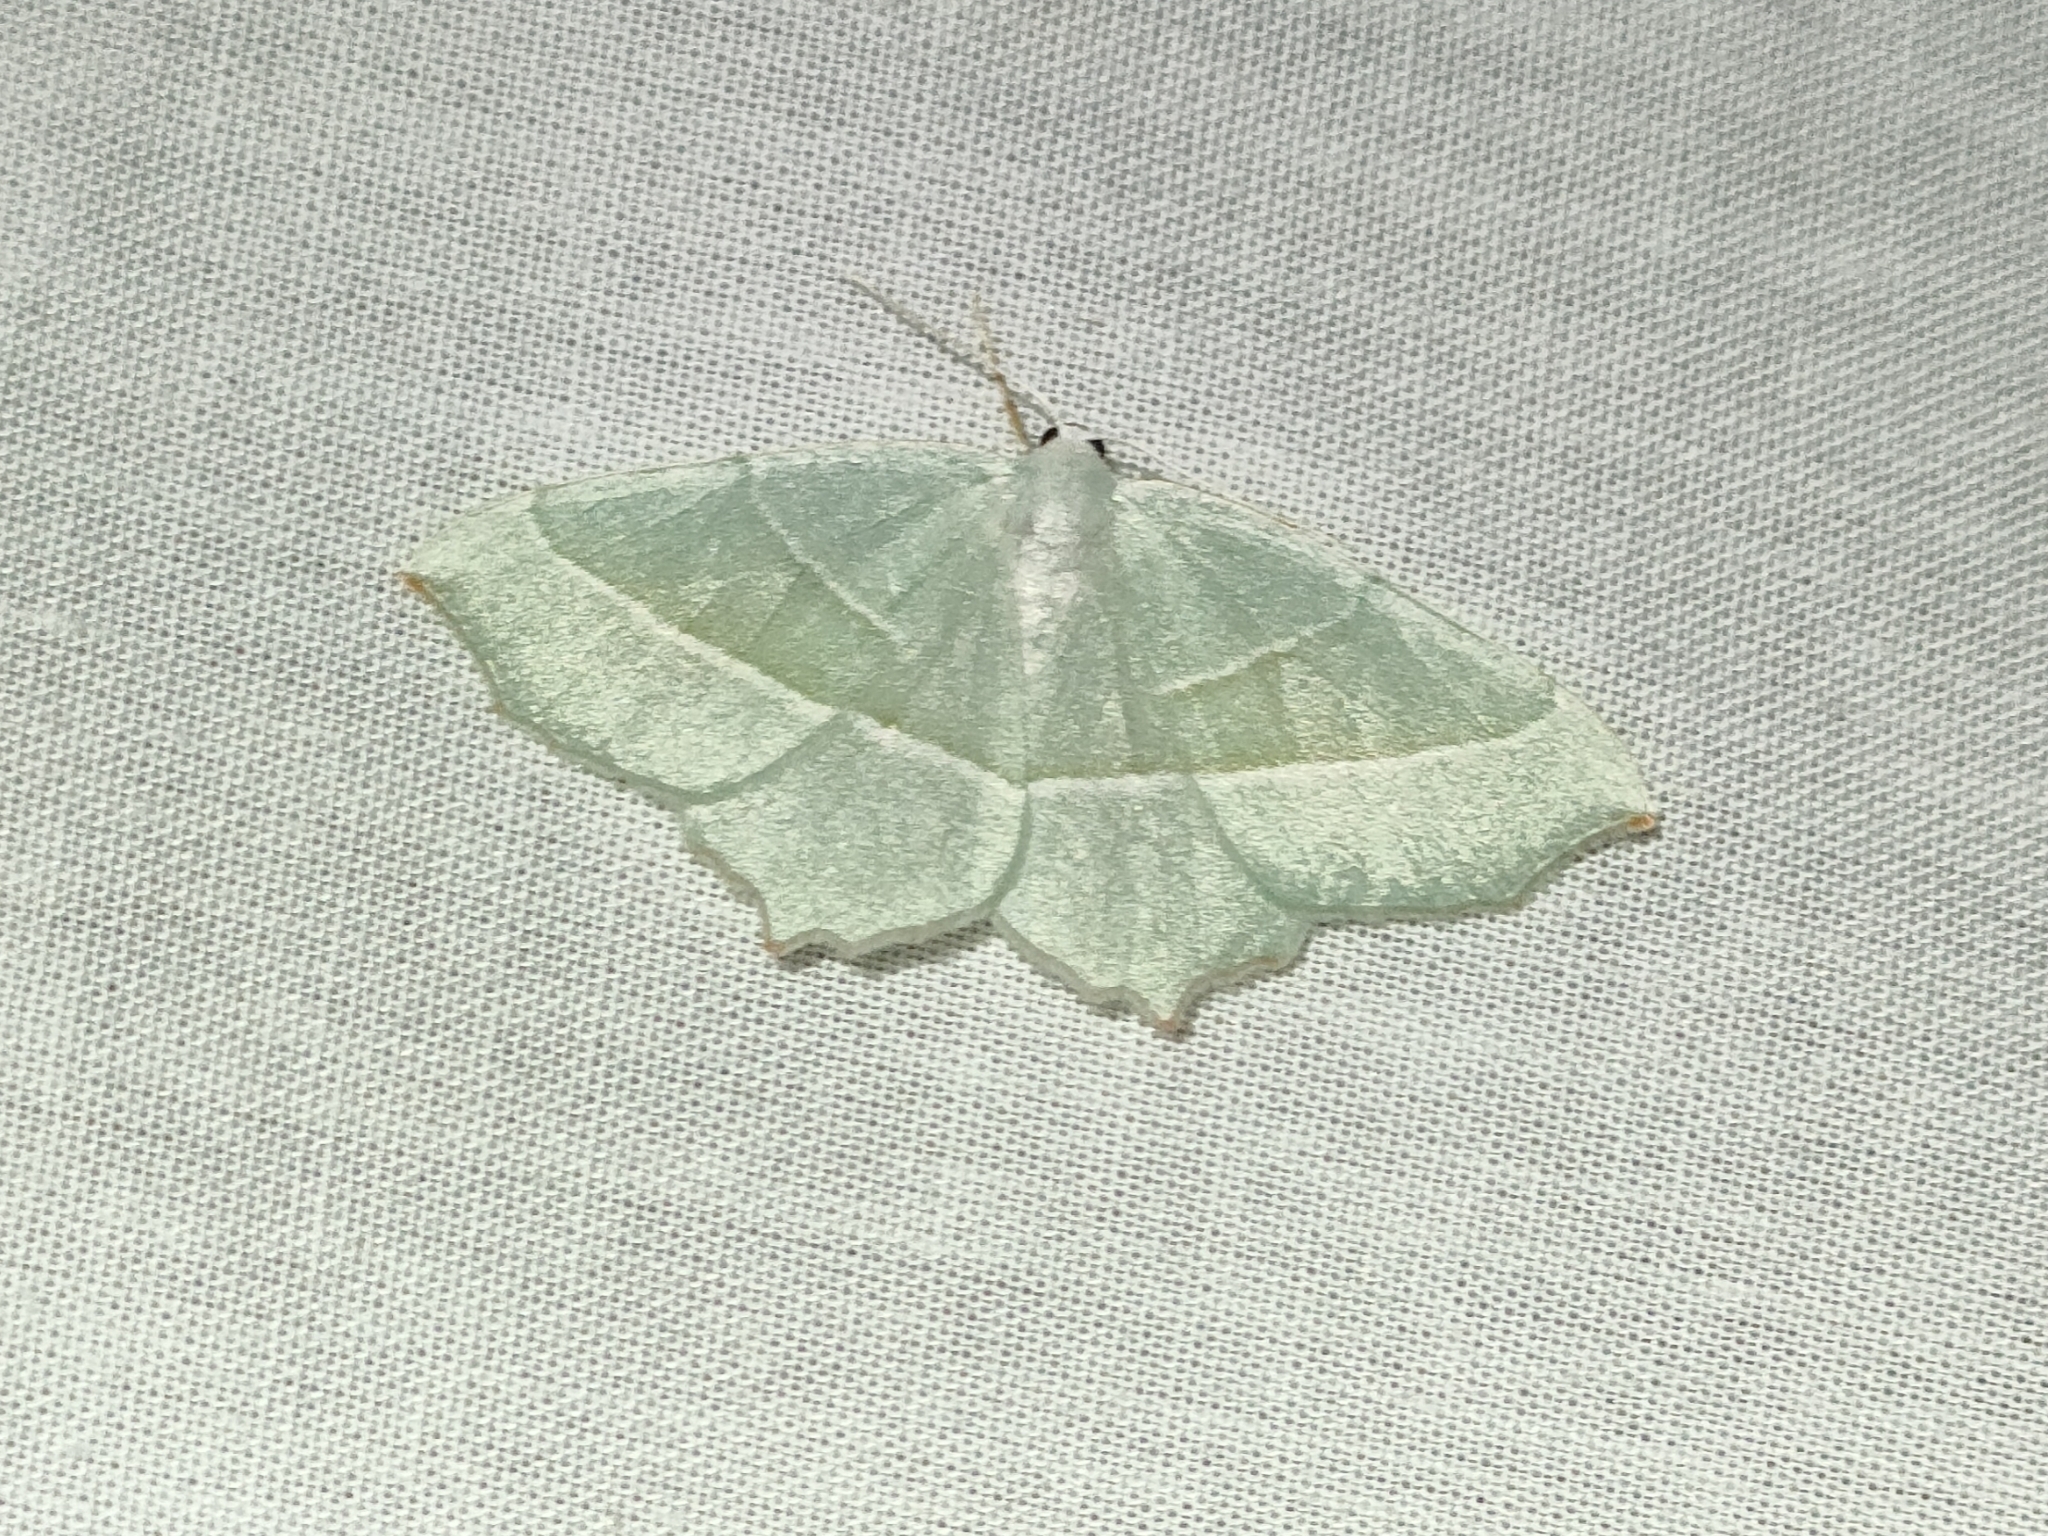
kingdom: Animalia
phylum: Arthropoda
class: Insecta
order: Lepidoptera
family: Geometridae
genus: Campaea
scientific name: Campaea margaritaria
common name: Light emerald
